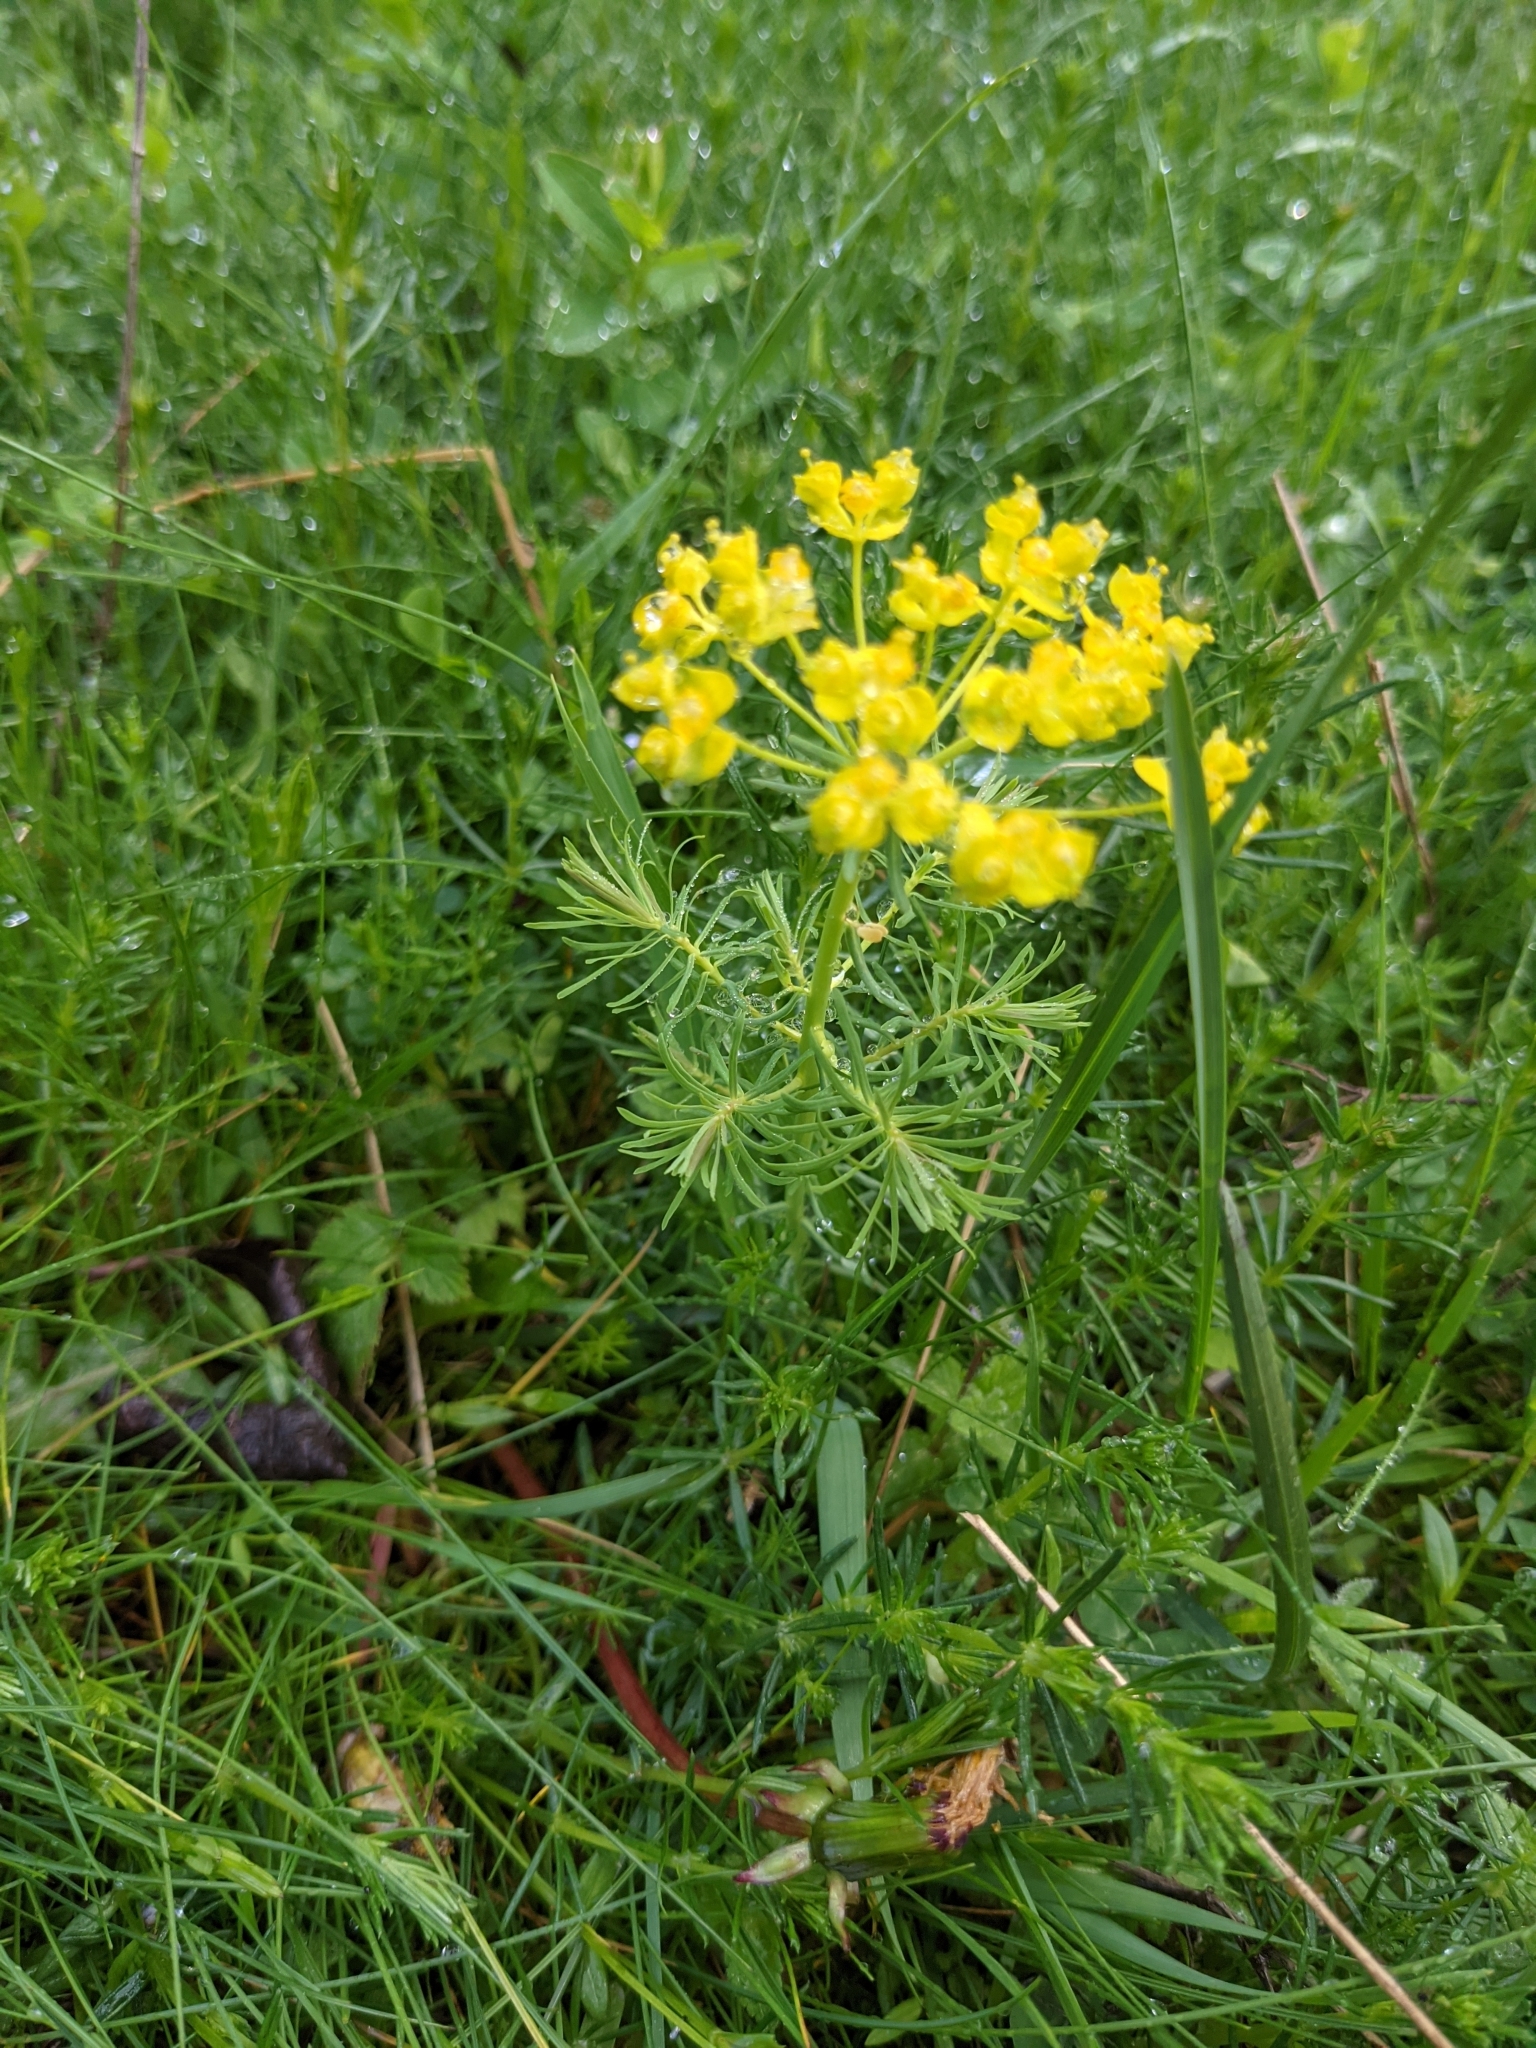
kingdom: Plantae
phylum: Tracheophyta
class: Magnoliopsida
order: Malpighiales
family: Euphorbiaceae
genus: Euphorbia
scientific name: Euphorbia cyparissias
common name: Cypress spurge
